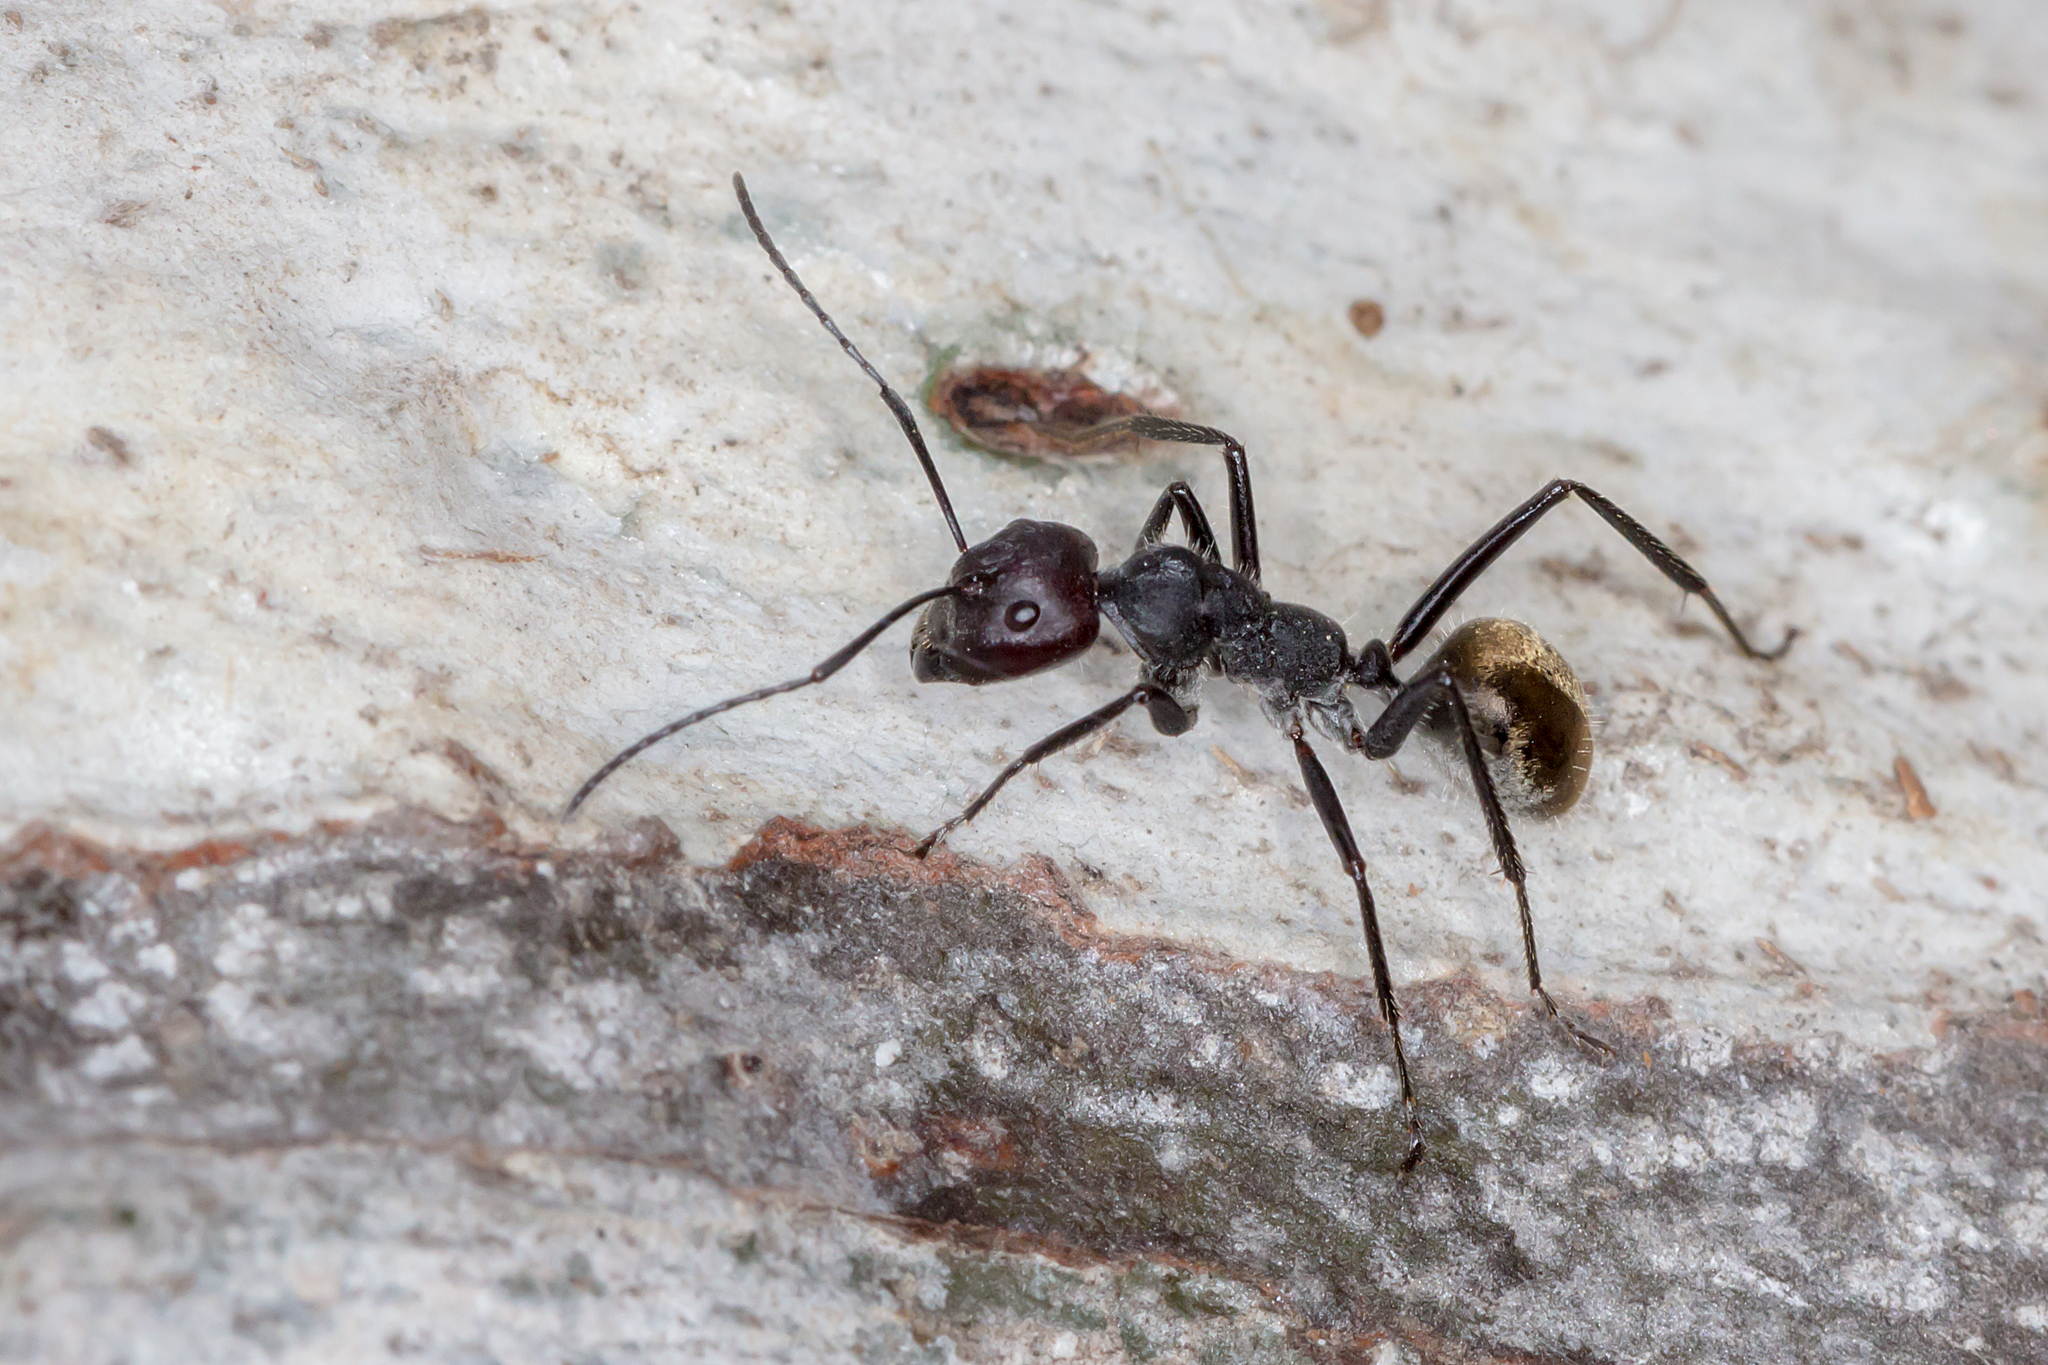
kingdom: Animalia
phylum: Arthropoda
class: Insecta
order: Hymenoptera
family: Formicidae
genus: Camponotus
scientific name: Camponotus suffusus
